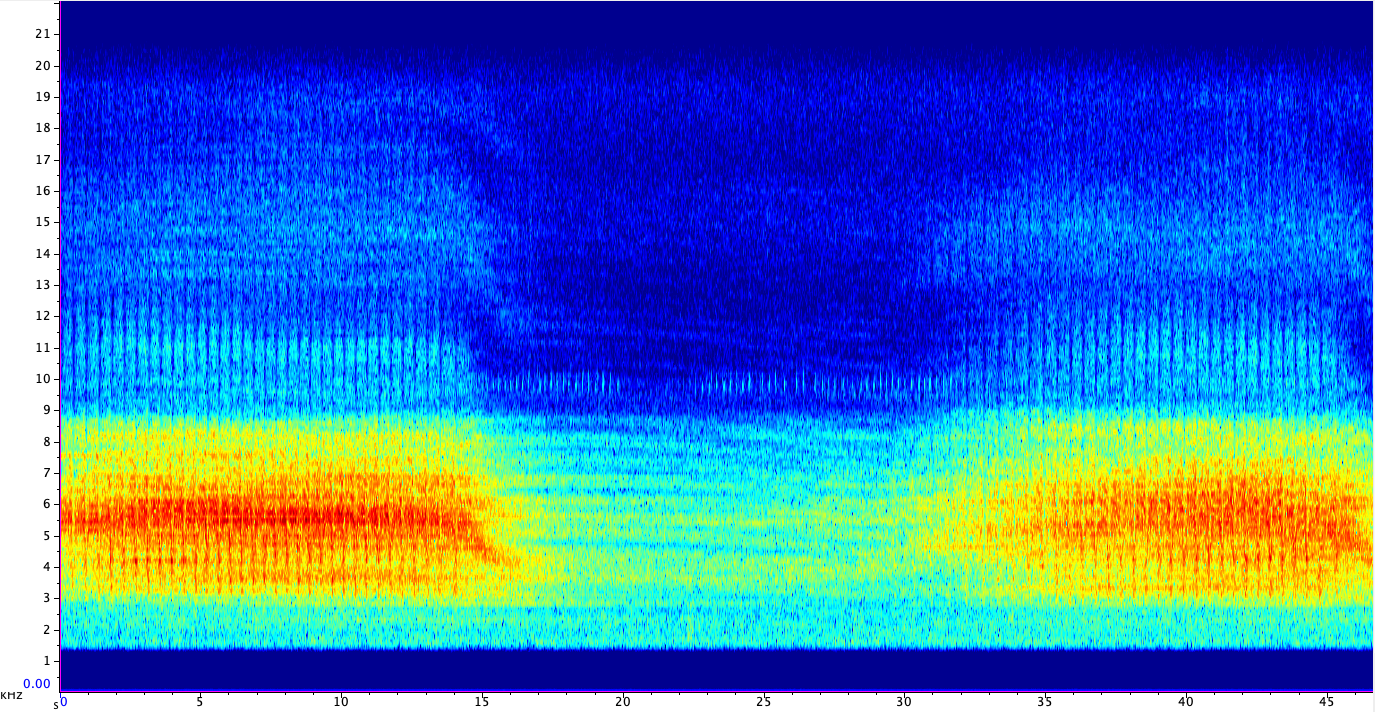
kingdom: Animalia
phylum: Arthropoda
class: Insecta
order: Hemiptera
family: Cicadidae
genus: Neotibicen
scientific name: Neotibicen winnemanna
